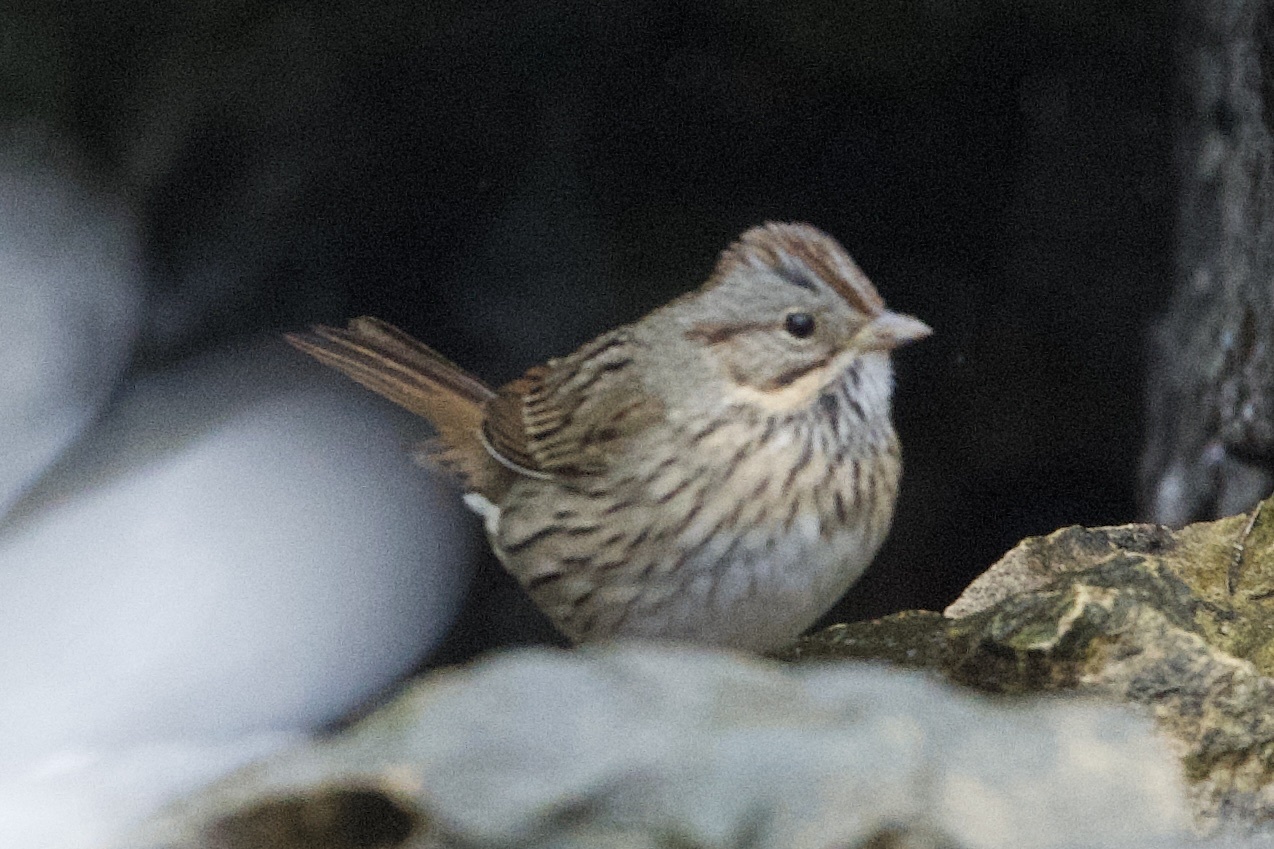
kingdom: Animalia
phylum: Chordata
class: Aves
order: Passeriformes
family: Passerellidae
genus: Melospiza
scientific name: Melospiza lincolnii
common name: Lincoln's sparrow
